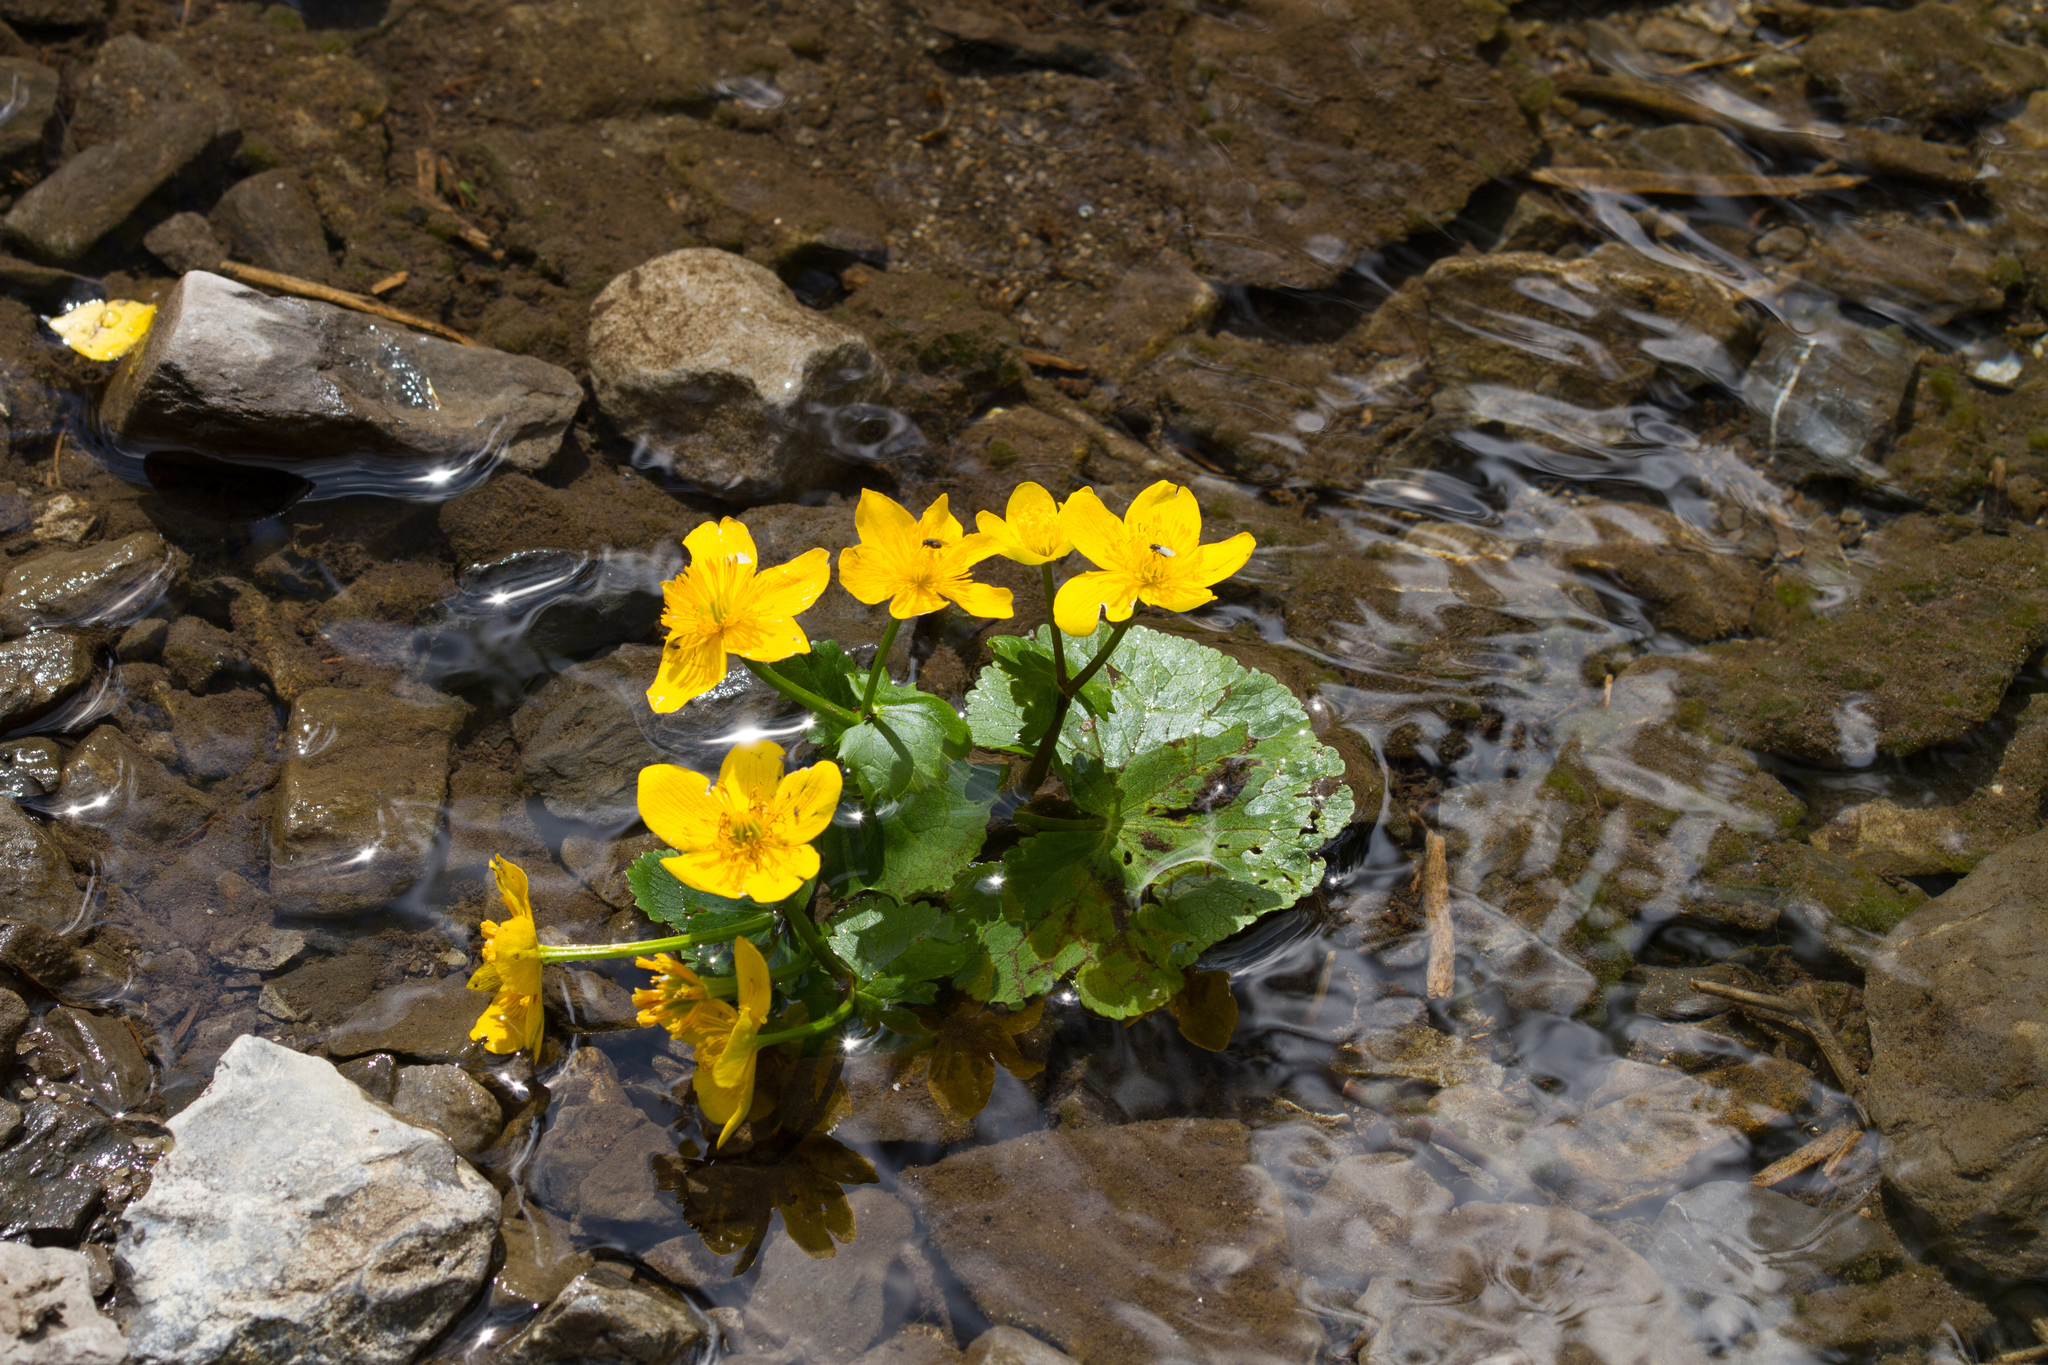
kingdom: Plantae
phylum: Tracheophyta
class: Magnoliopsida
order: Ranunculales
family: Ranunculaceae
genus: Caltha
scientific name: Caltha palustris
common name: Marsh marigold
